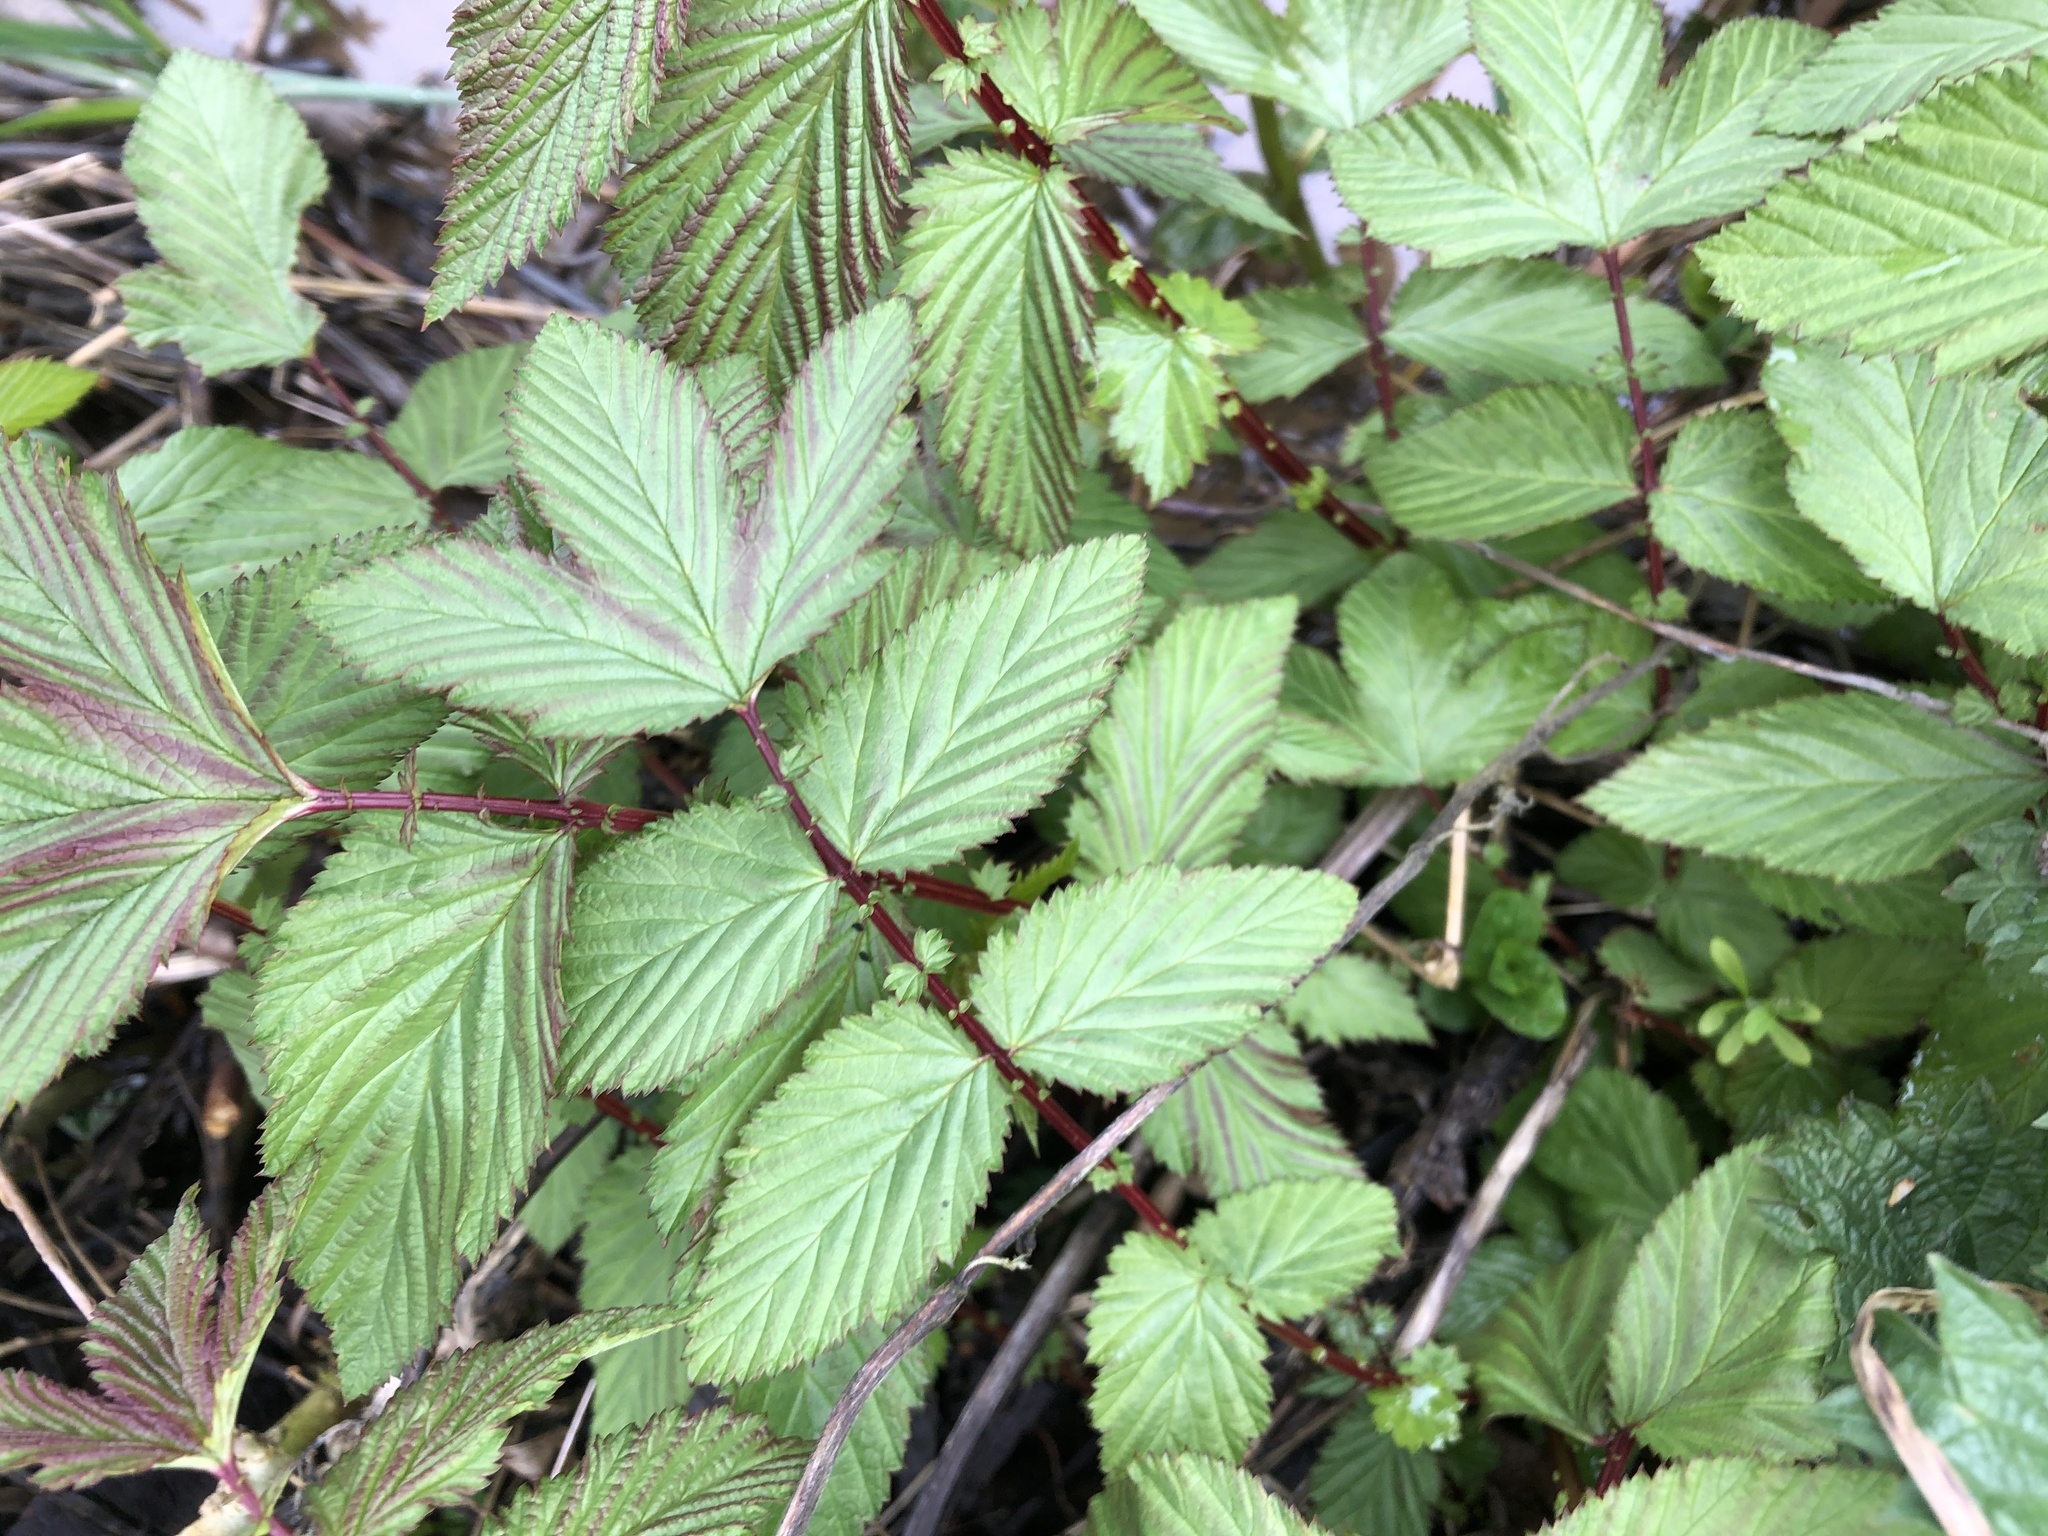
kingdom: Plantae
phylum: Tracheophyta
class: Magnoliopsida
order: Rosales
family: Rosaceae
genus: Filipendula
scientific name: Filipendula ulmaria
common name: Meadowsweet
